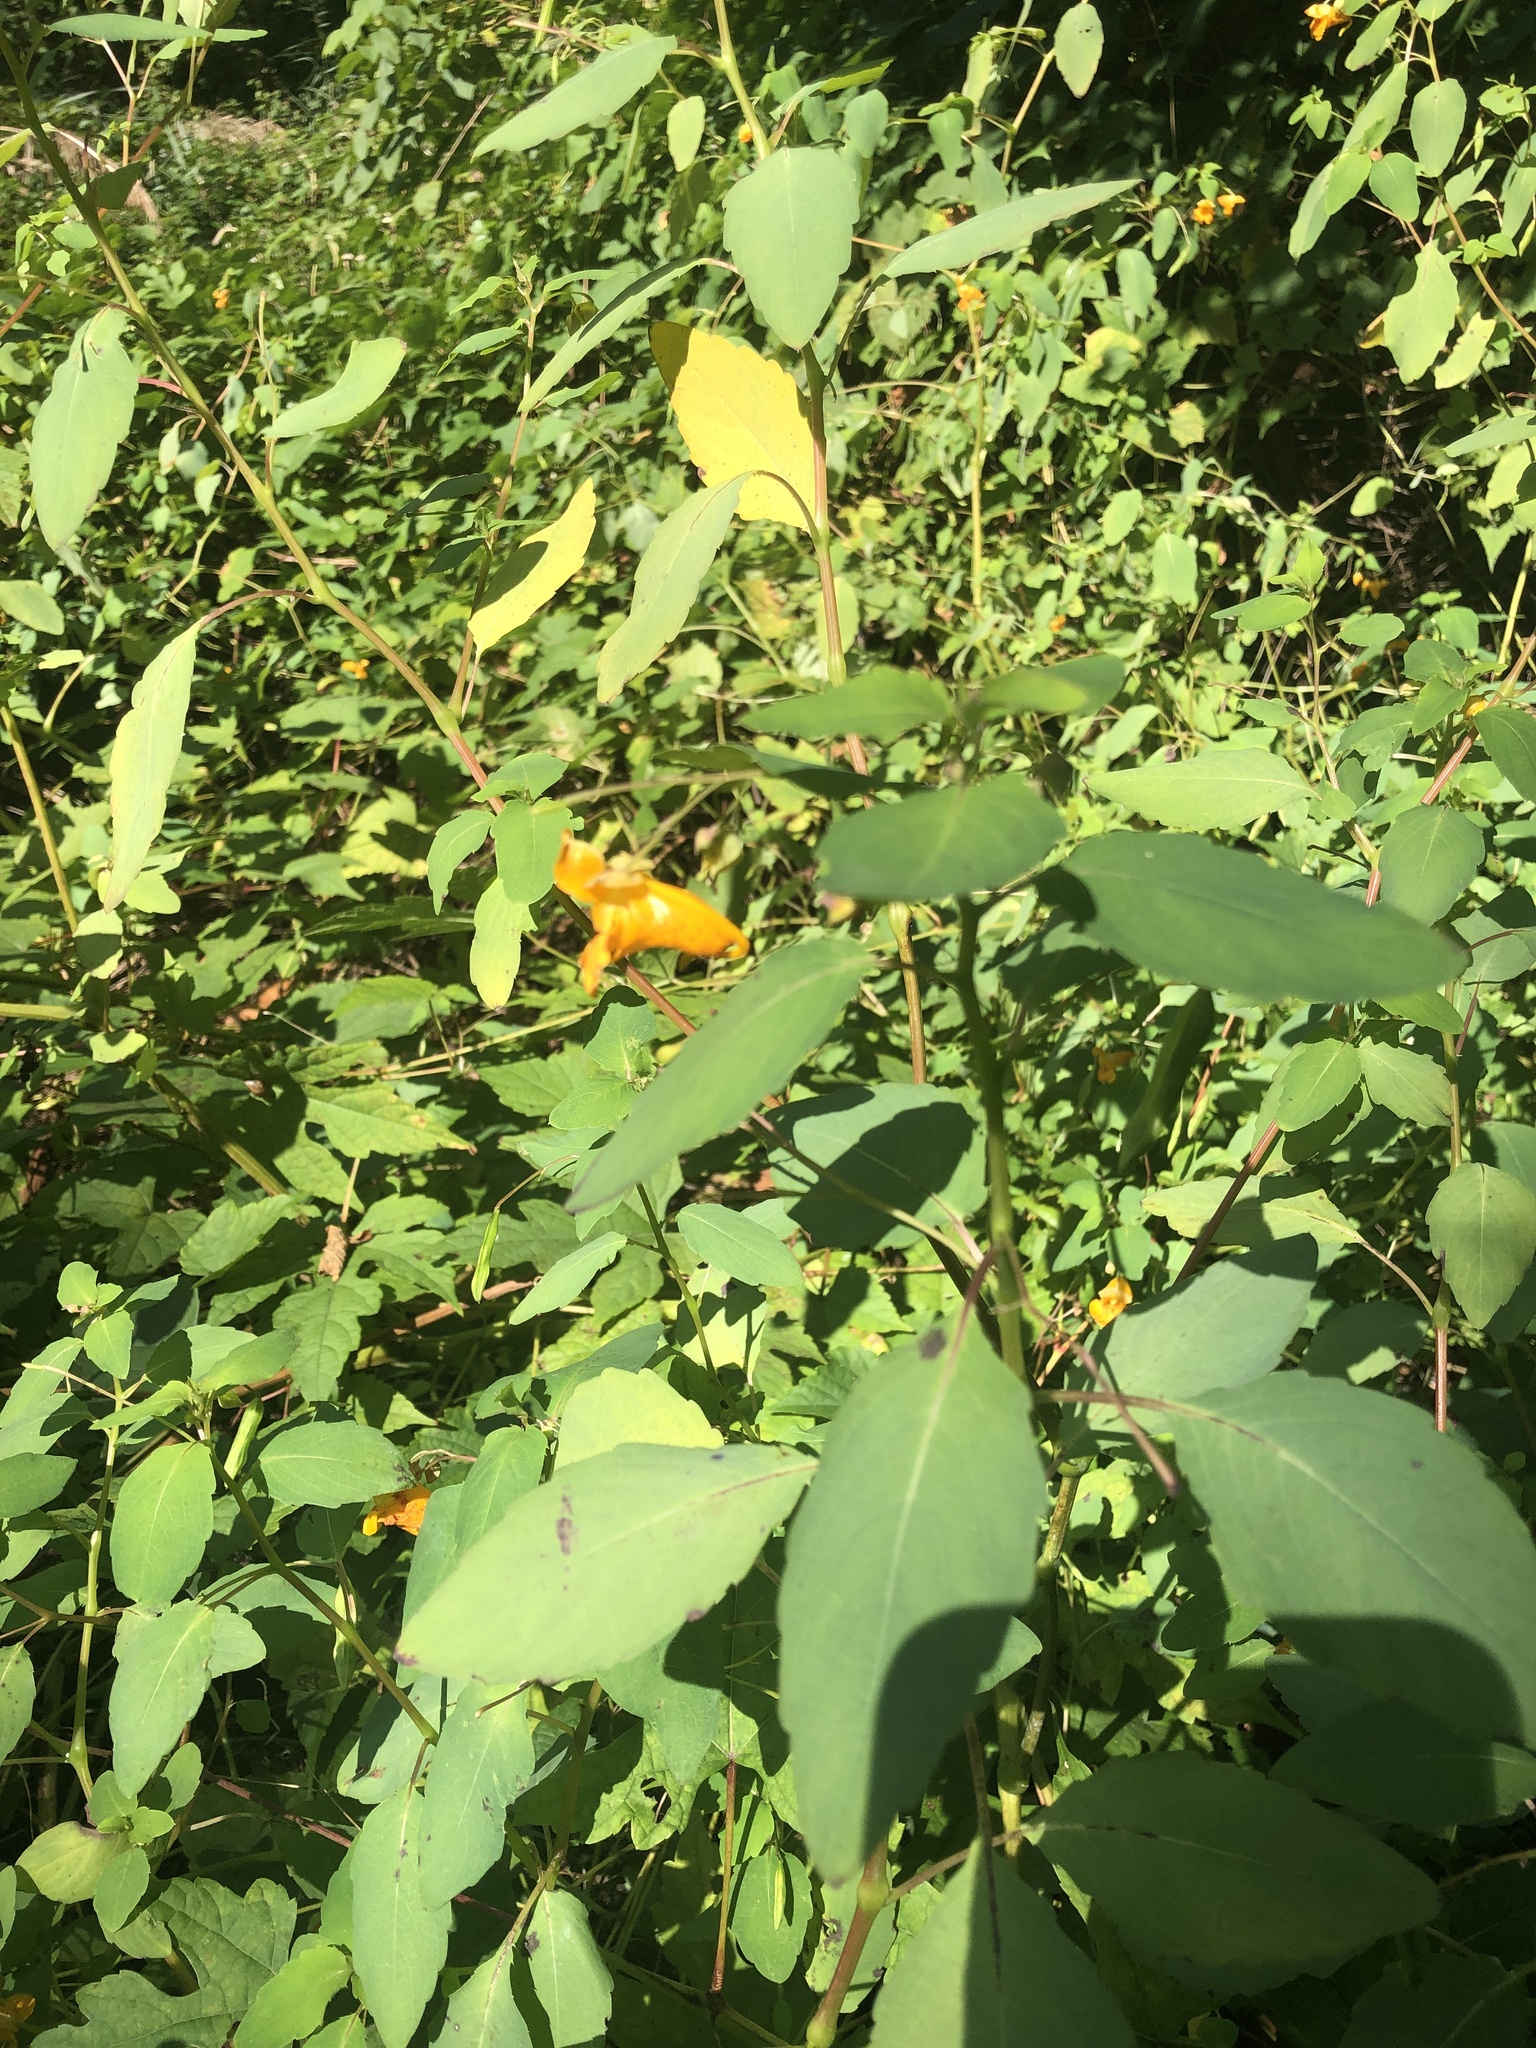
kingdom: Plantae
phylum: Tracheophyta
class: Magnoliopsida
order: Ericales
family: Balsaminaceae
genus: Impatiens
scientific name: Impatiens capensis
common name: Orange balsam
